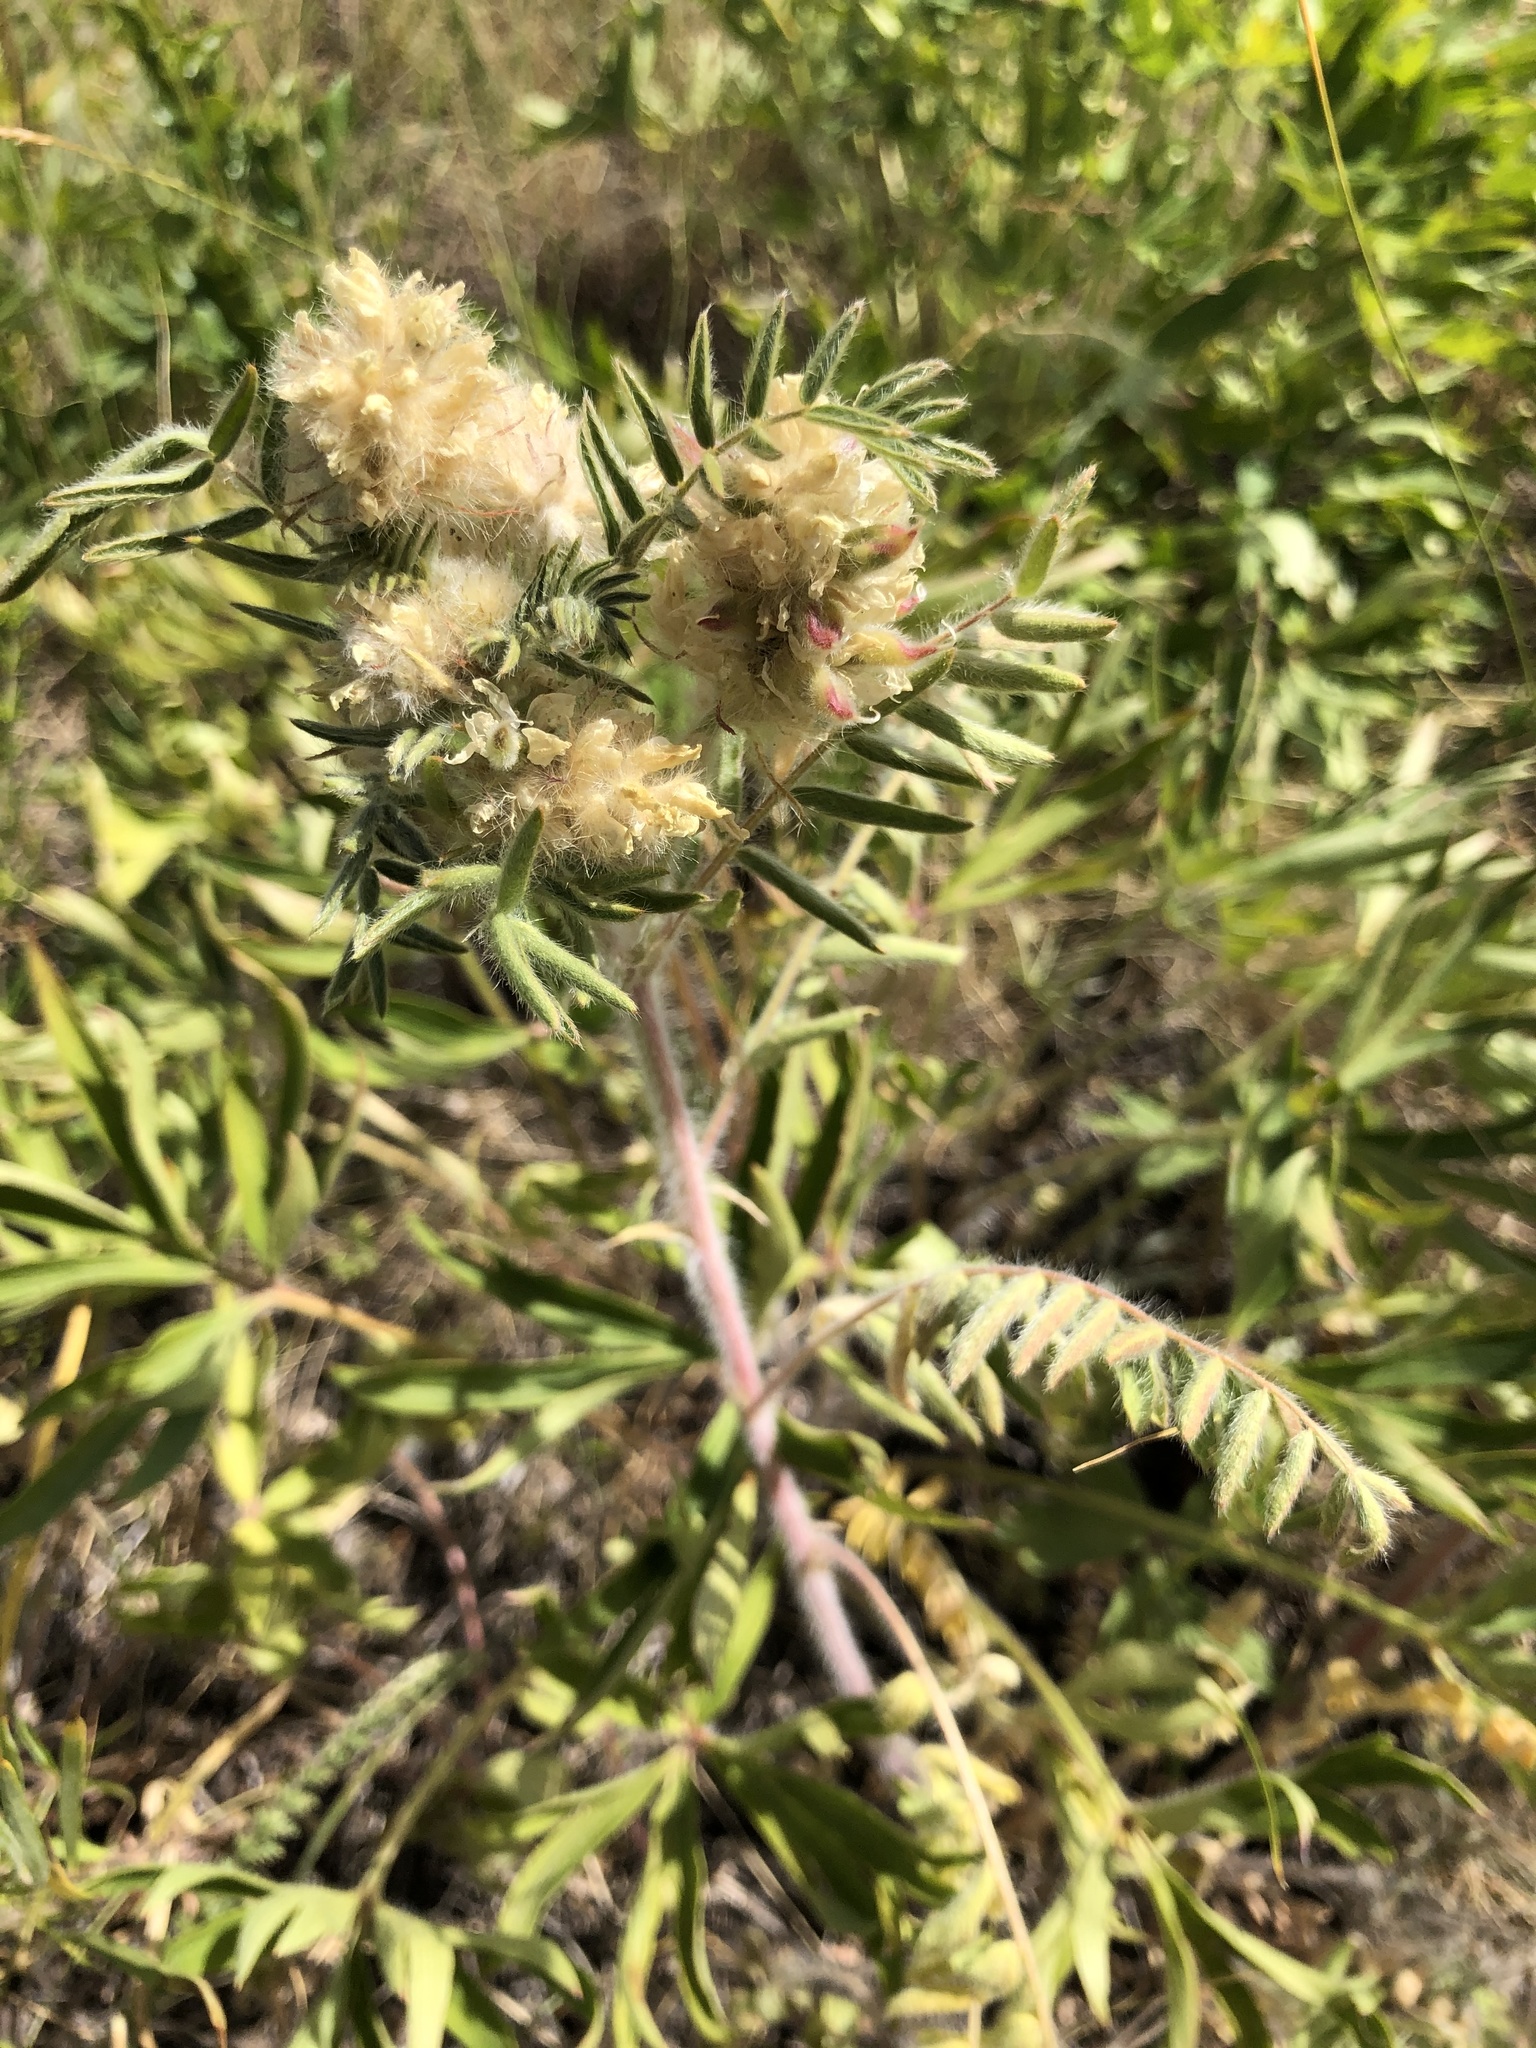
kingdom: Plantae
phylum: Tracheophyta
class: Magnoliopsida
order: Fabales
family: Fabaceae
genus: Oxytropis
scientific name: Oxytropis pilosa
